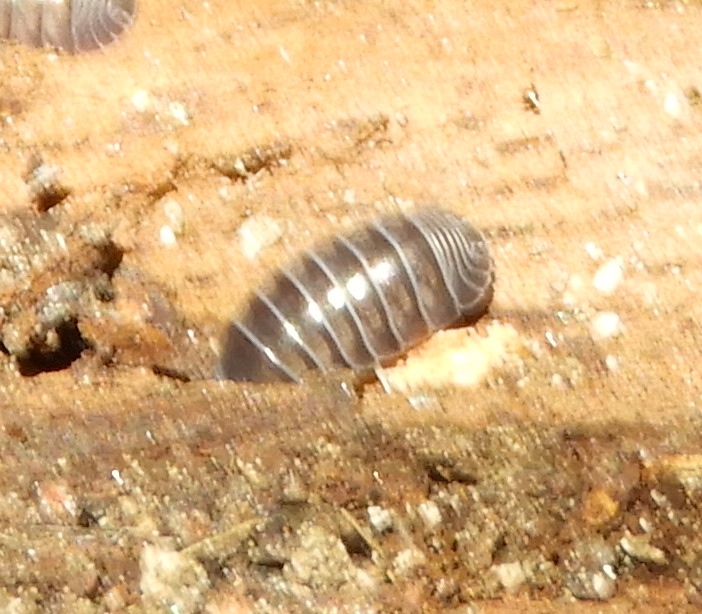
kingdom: Animalia
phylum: Arthropoda
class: Malacostraca
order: Isopoda
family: Armadillidiidae
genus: Armadillidium
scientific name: Armadillidium vulgare
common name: Common pill woodlouse
